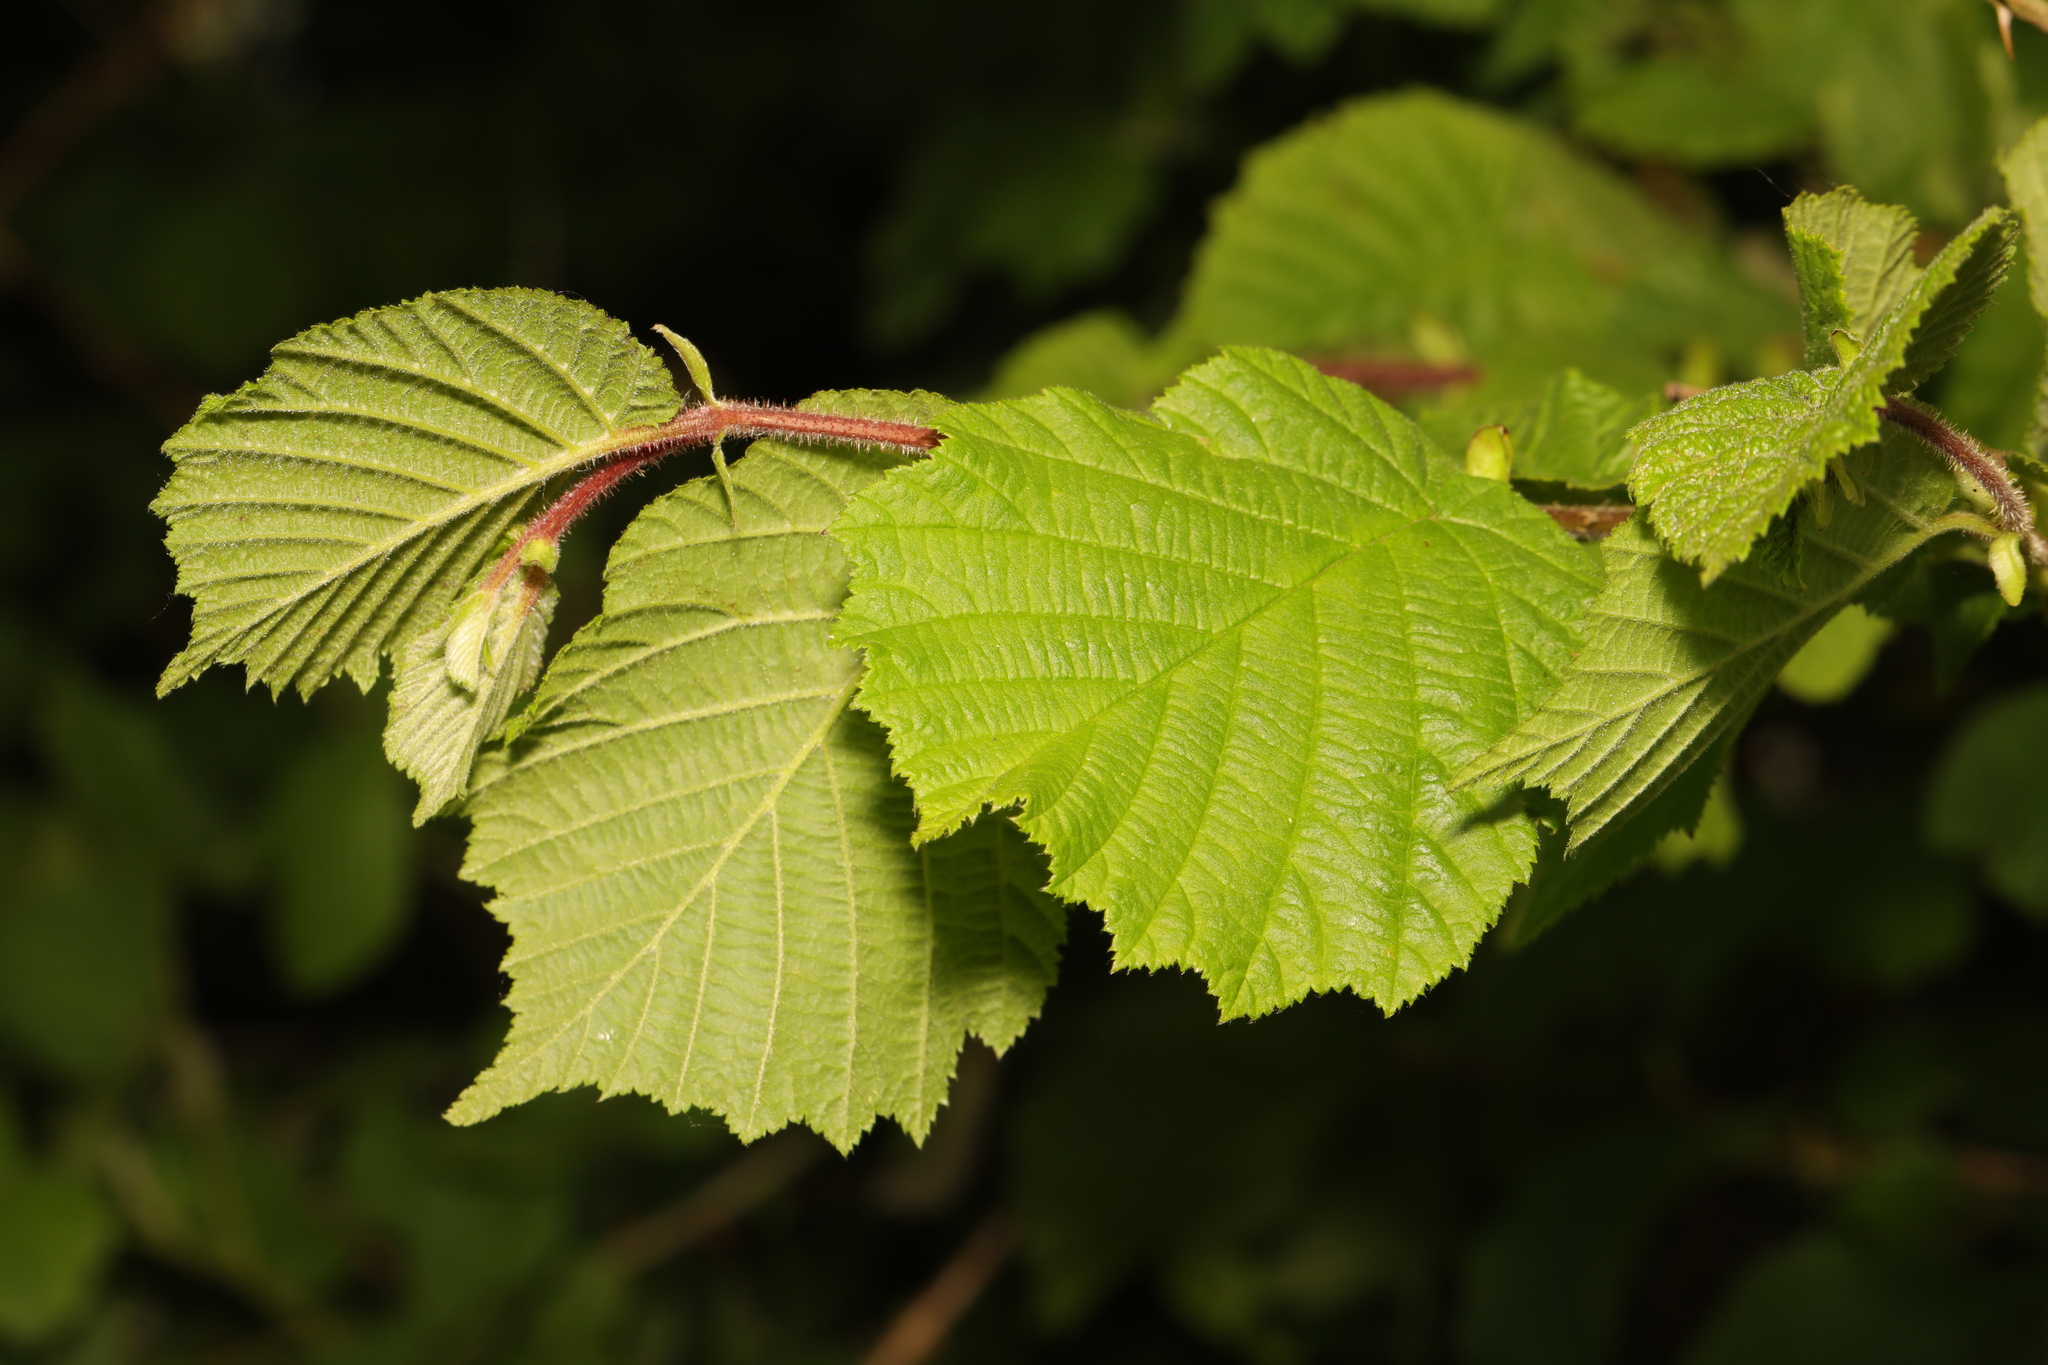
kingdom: Plantae
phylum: Tracheophyta
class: Magnoliopsida
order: Fagales
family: Betulaceae
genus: Corylus
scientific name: Corylus avellana
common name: European hazel
